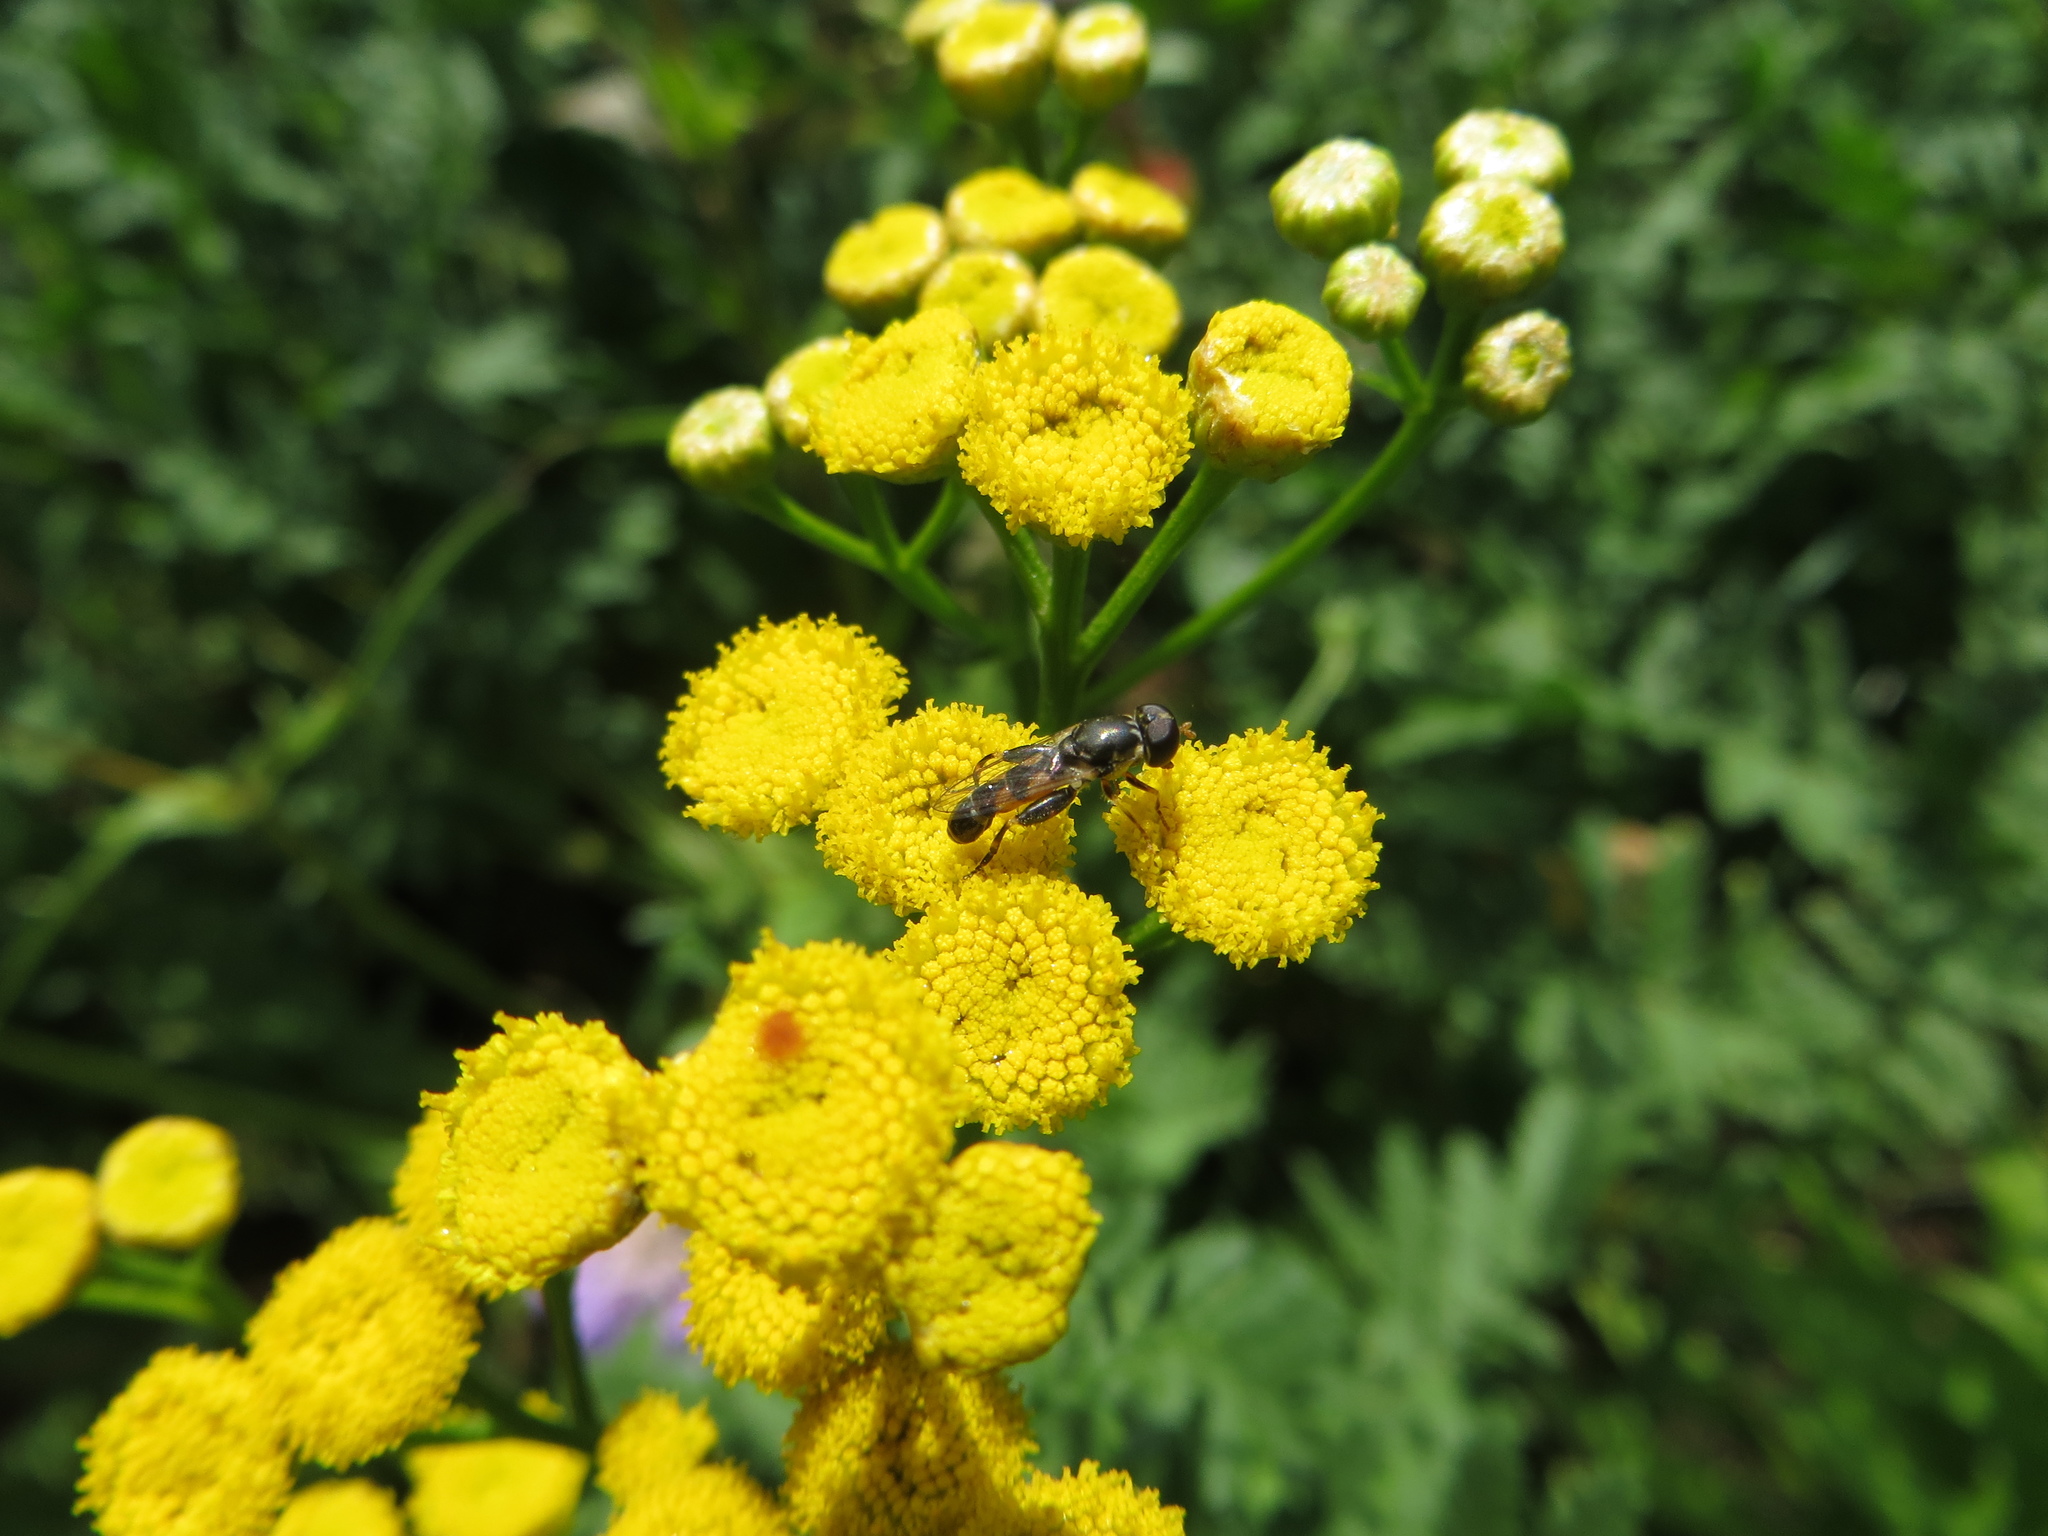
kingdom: Animalia
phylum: Arthropoda
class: Insecta
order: Diptera
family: Syrphidae
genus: Syritta
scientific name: Syritta pipiens
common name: Hover fly
